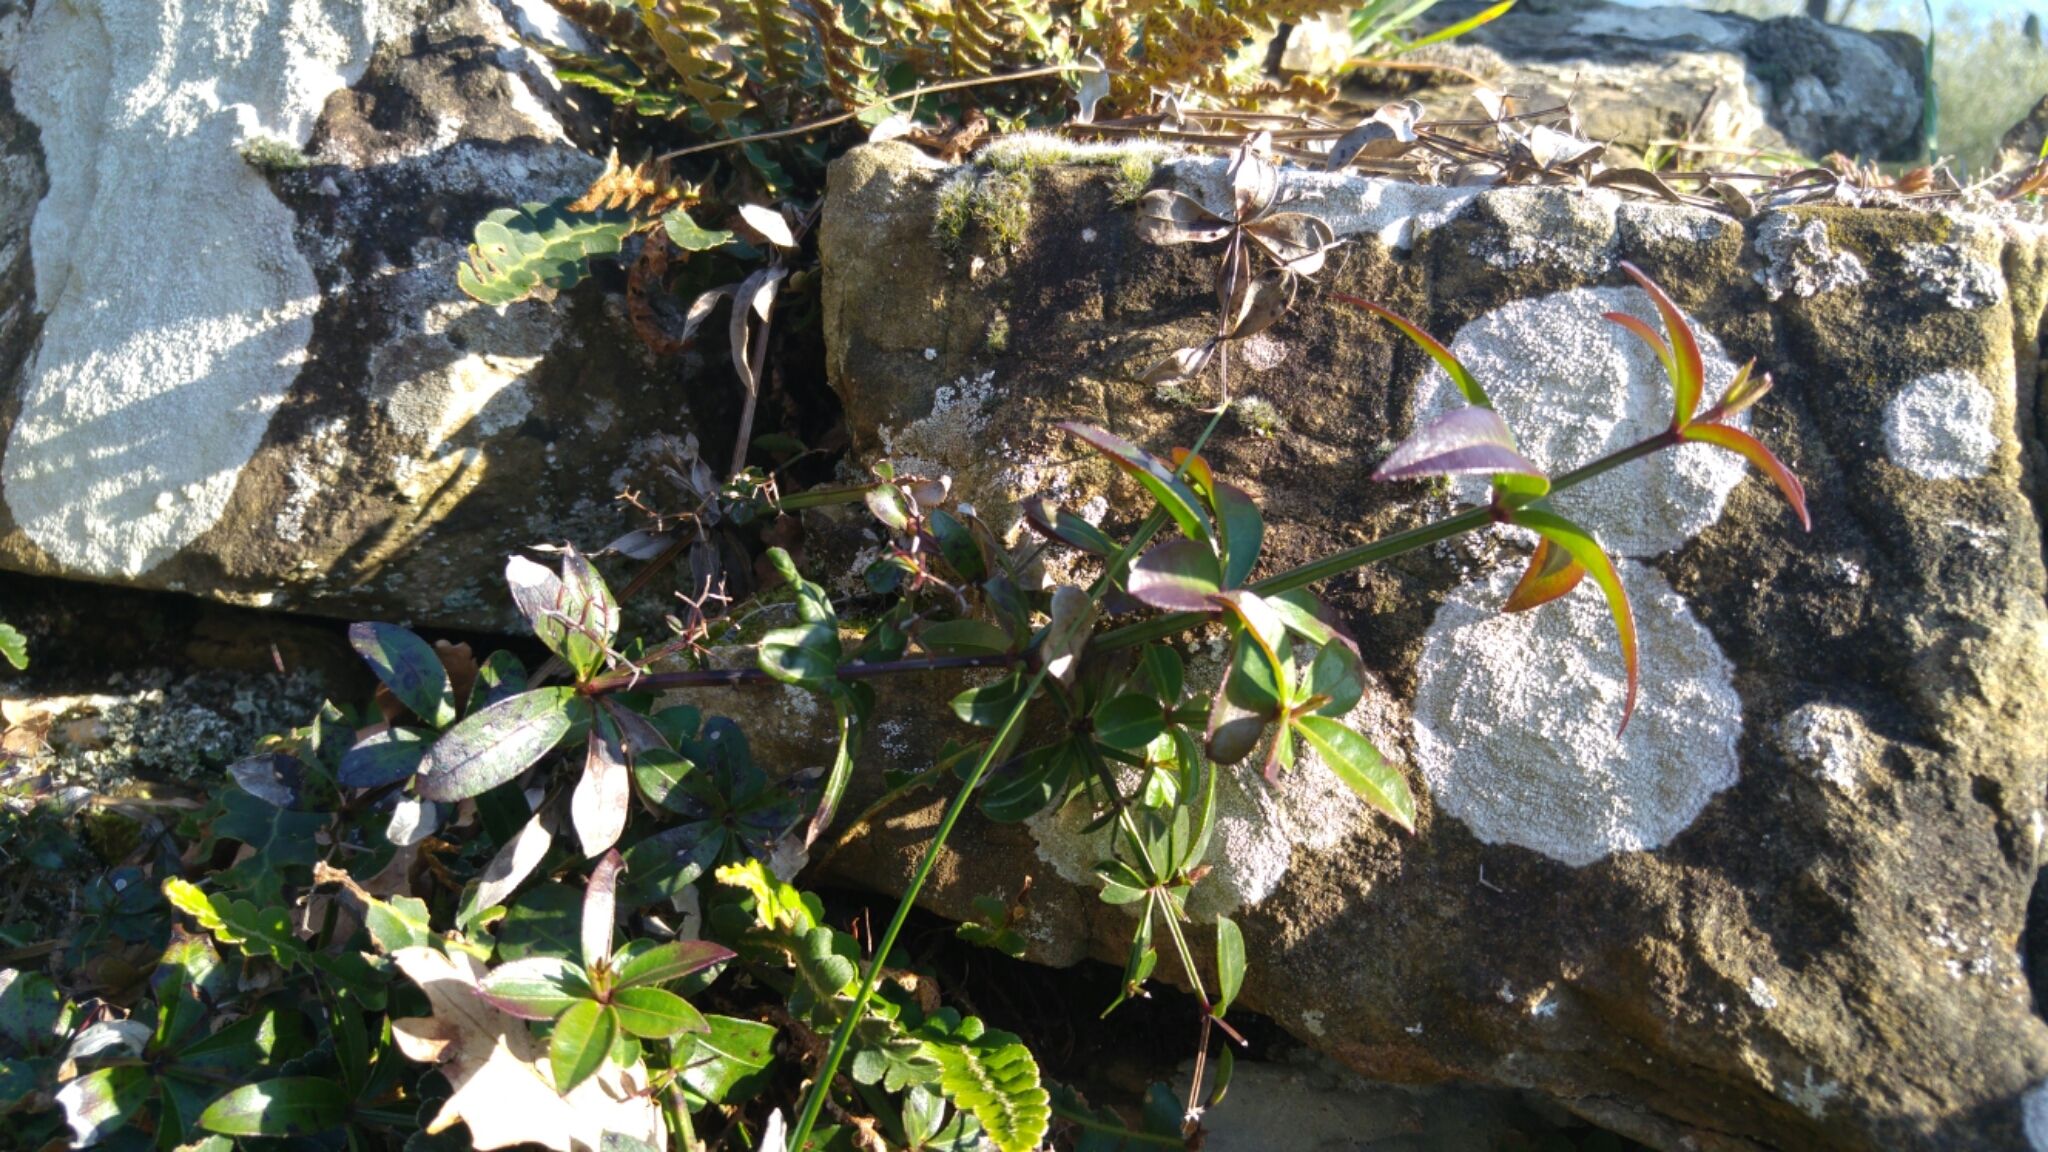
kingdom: Plantae
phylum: Tracheophyta
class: Magnoliopsida
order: Gentianales
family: Rubiaceae
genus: Rubia
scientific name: Rubia peregrina
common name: Wild madder
